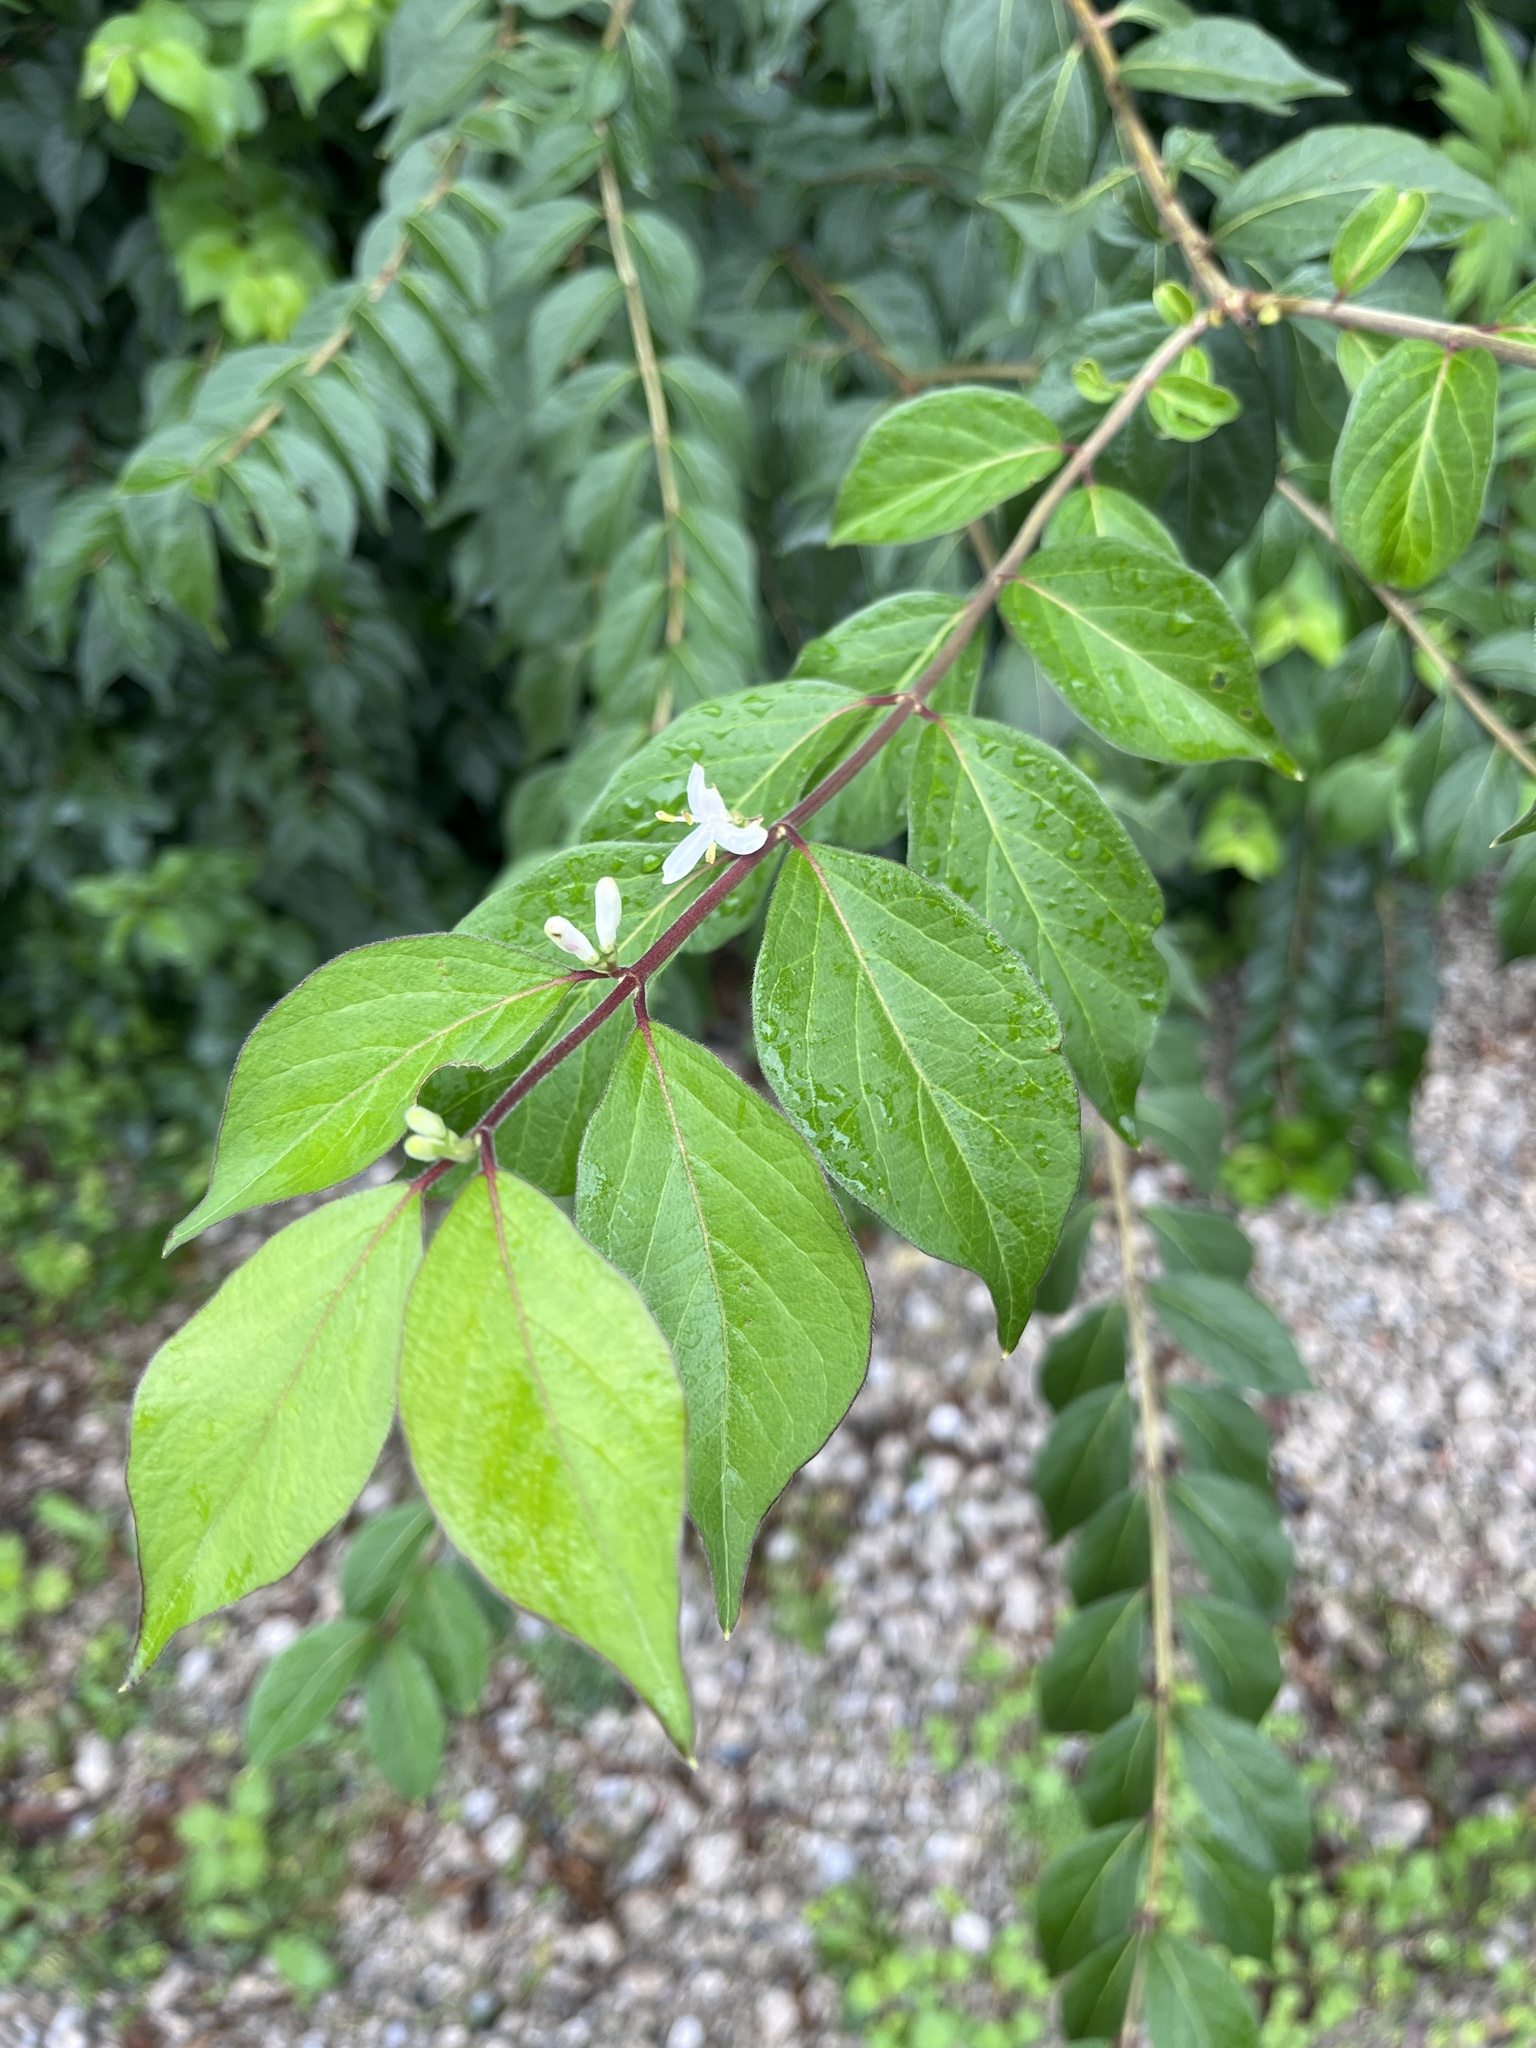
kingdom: Plantae
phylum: Tracheophyta
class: Magnoliopsida
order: Dipsacales
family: Caprifoliaceae
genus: Lonicera
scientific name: Lonicera maackii
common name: Amur honeysuckle
